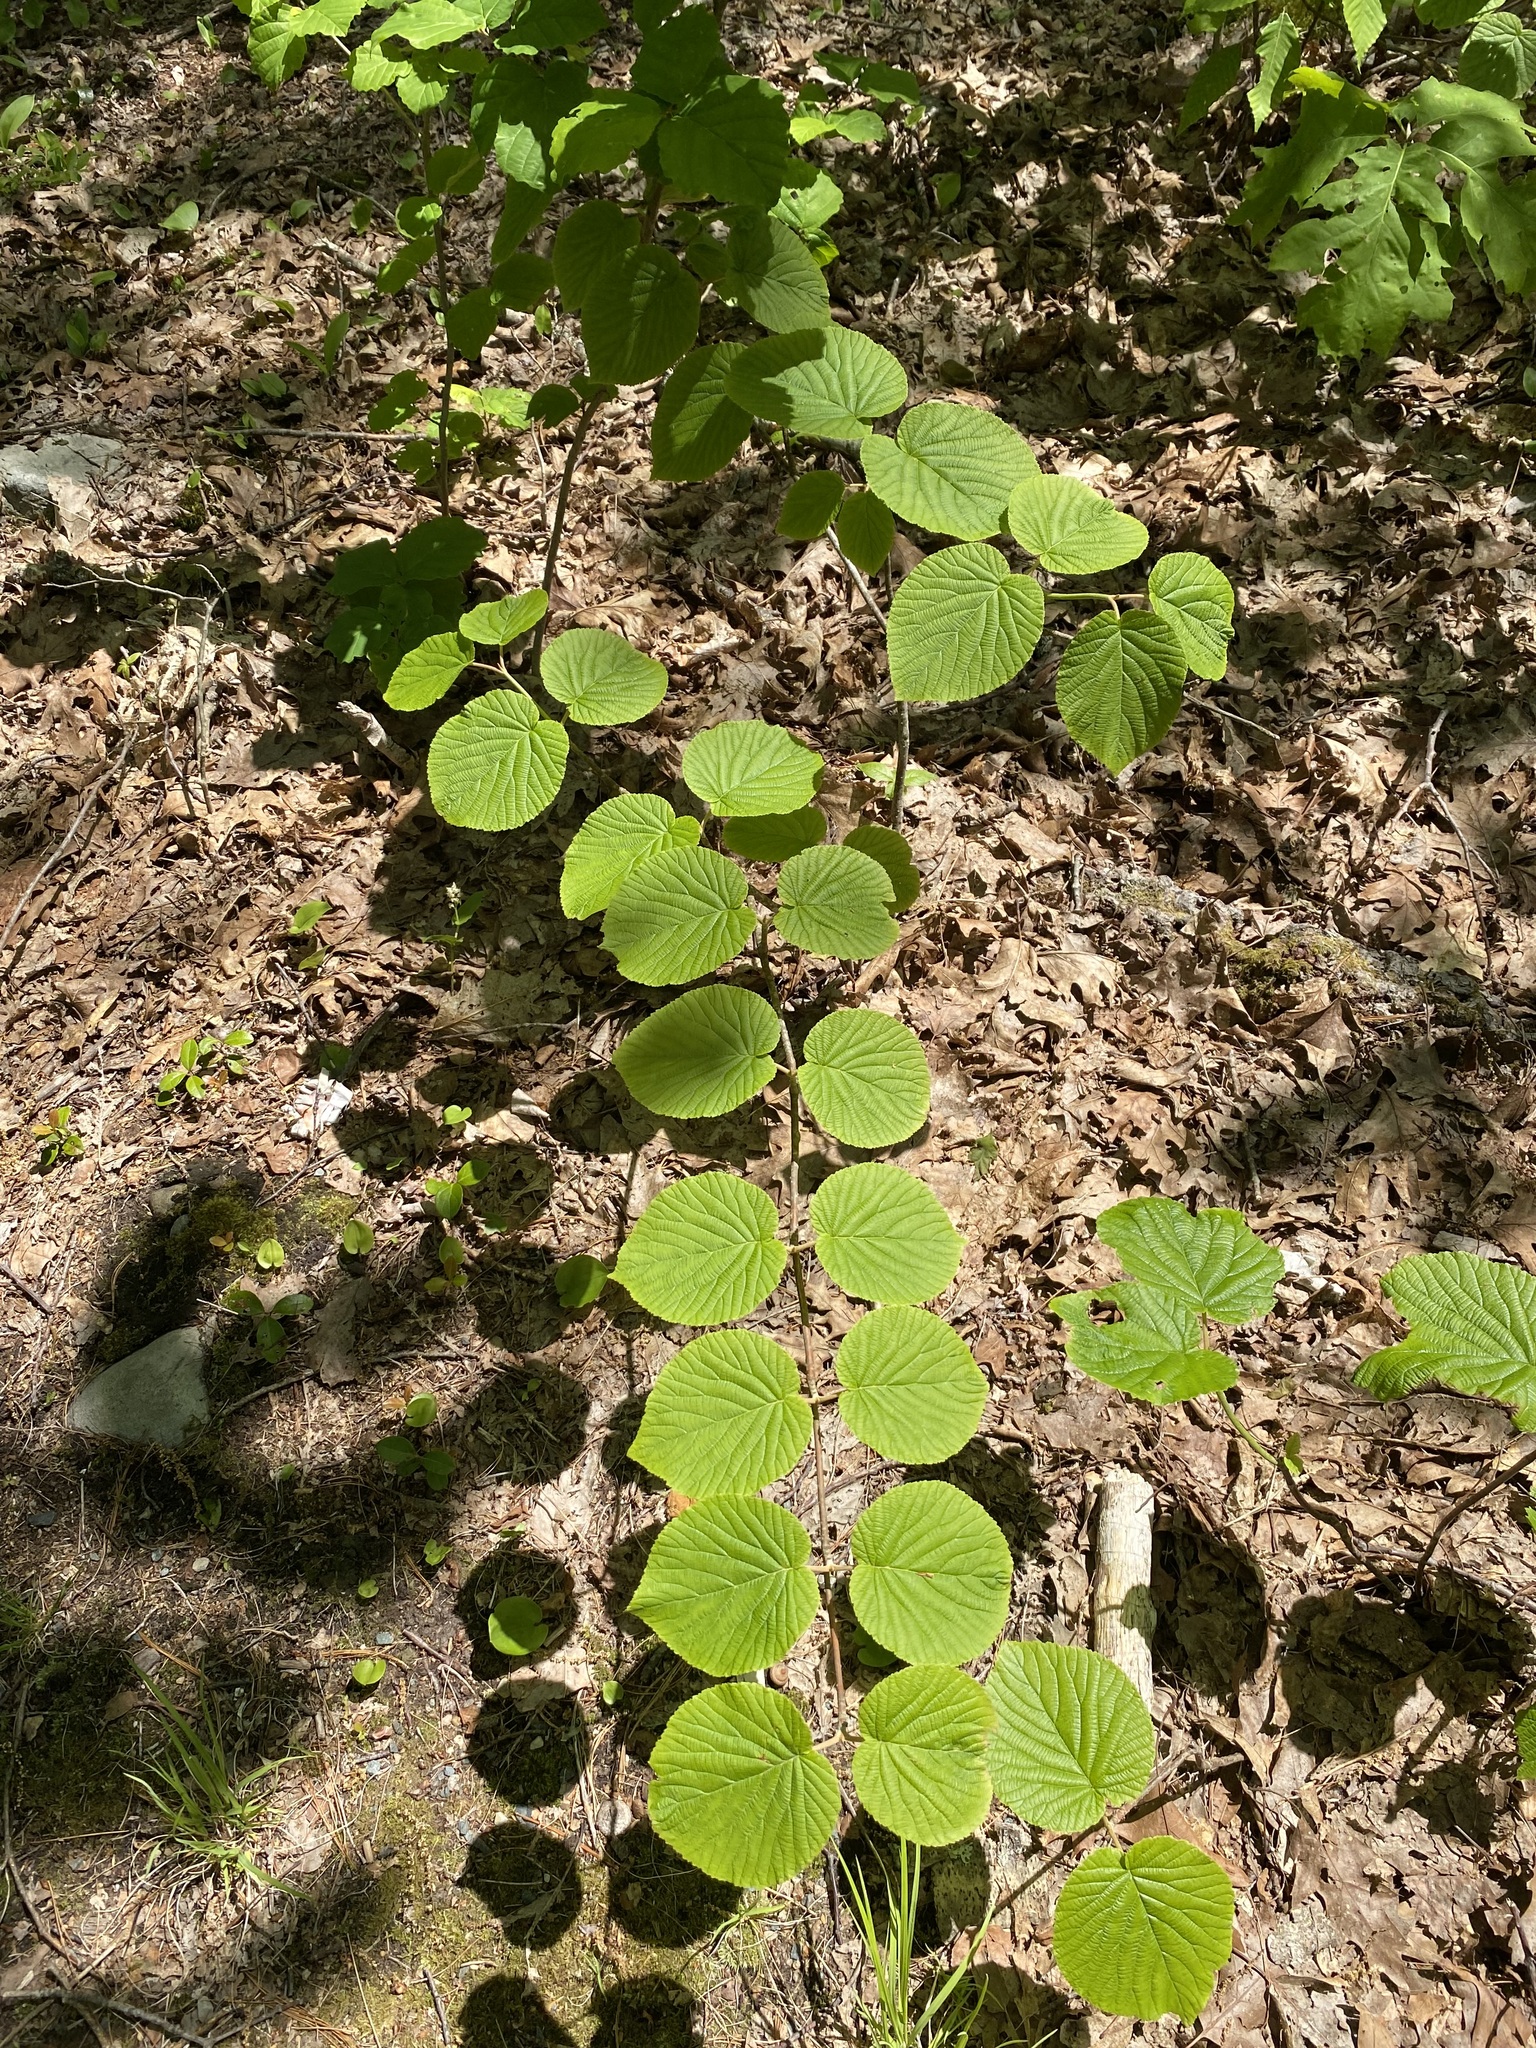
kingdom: Plantae
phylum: Tracheophyta
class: Magnoliopsida
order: Dipsacales
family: Viburnaceae
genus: Viburnum
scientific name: Viburnum lantanoides
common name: Hobblebush
